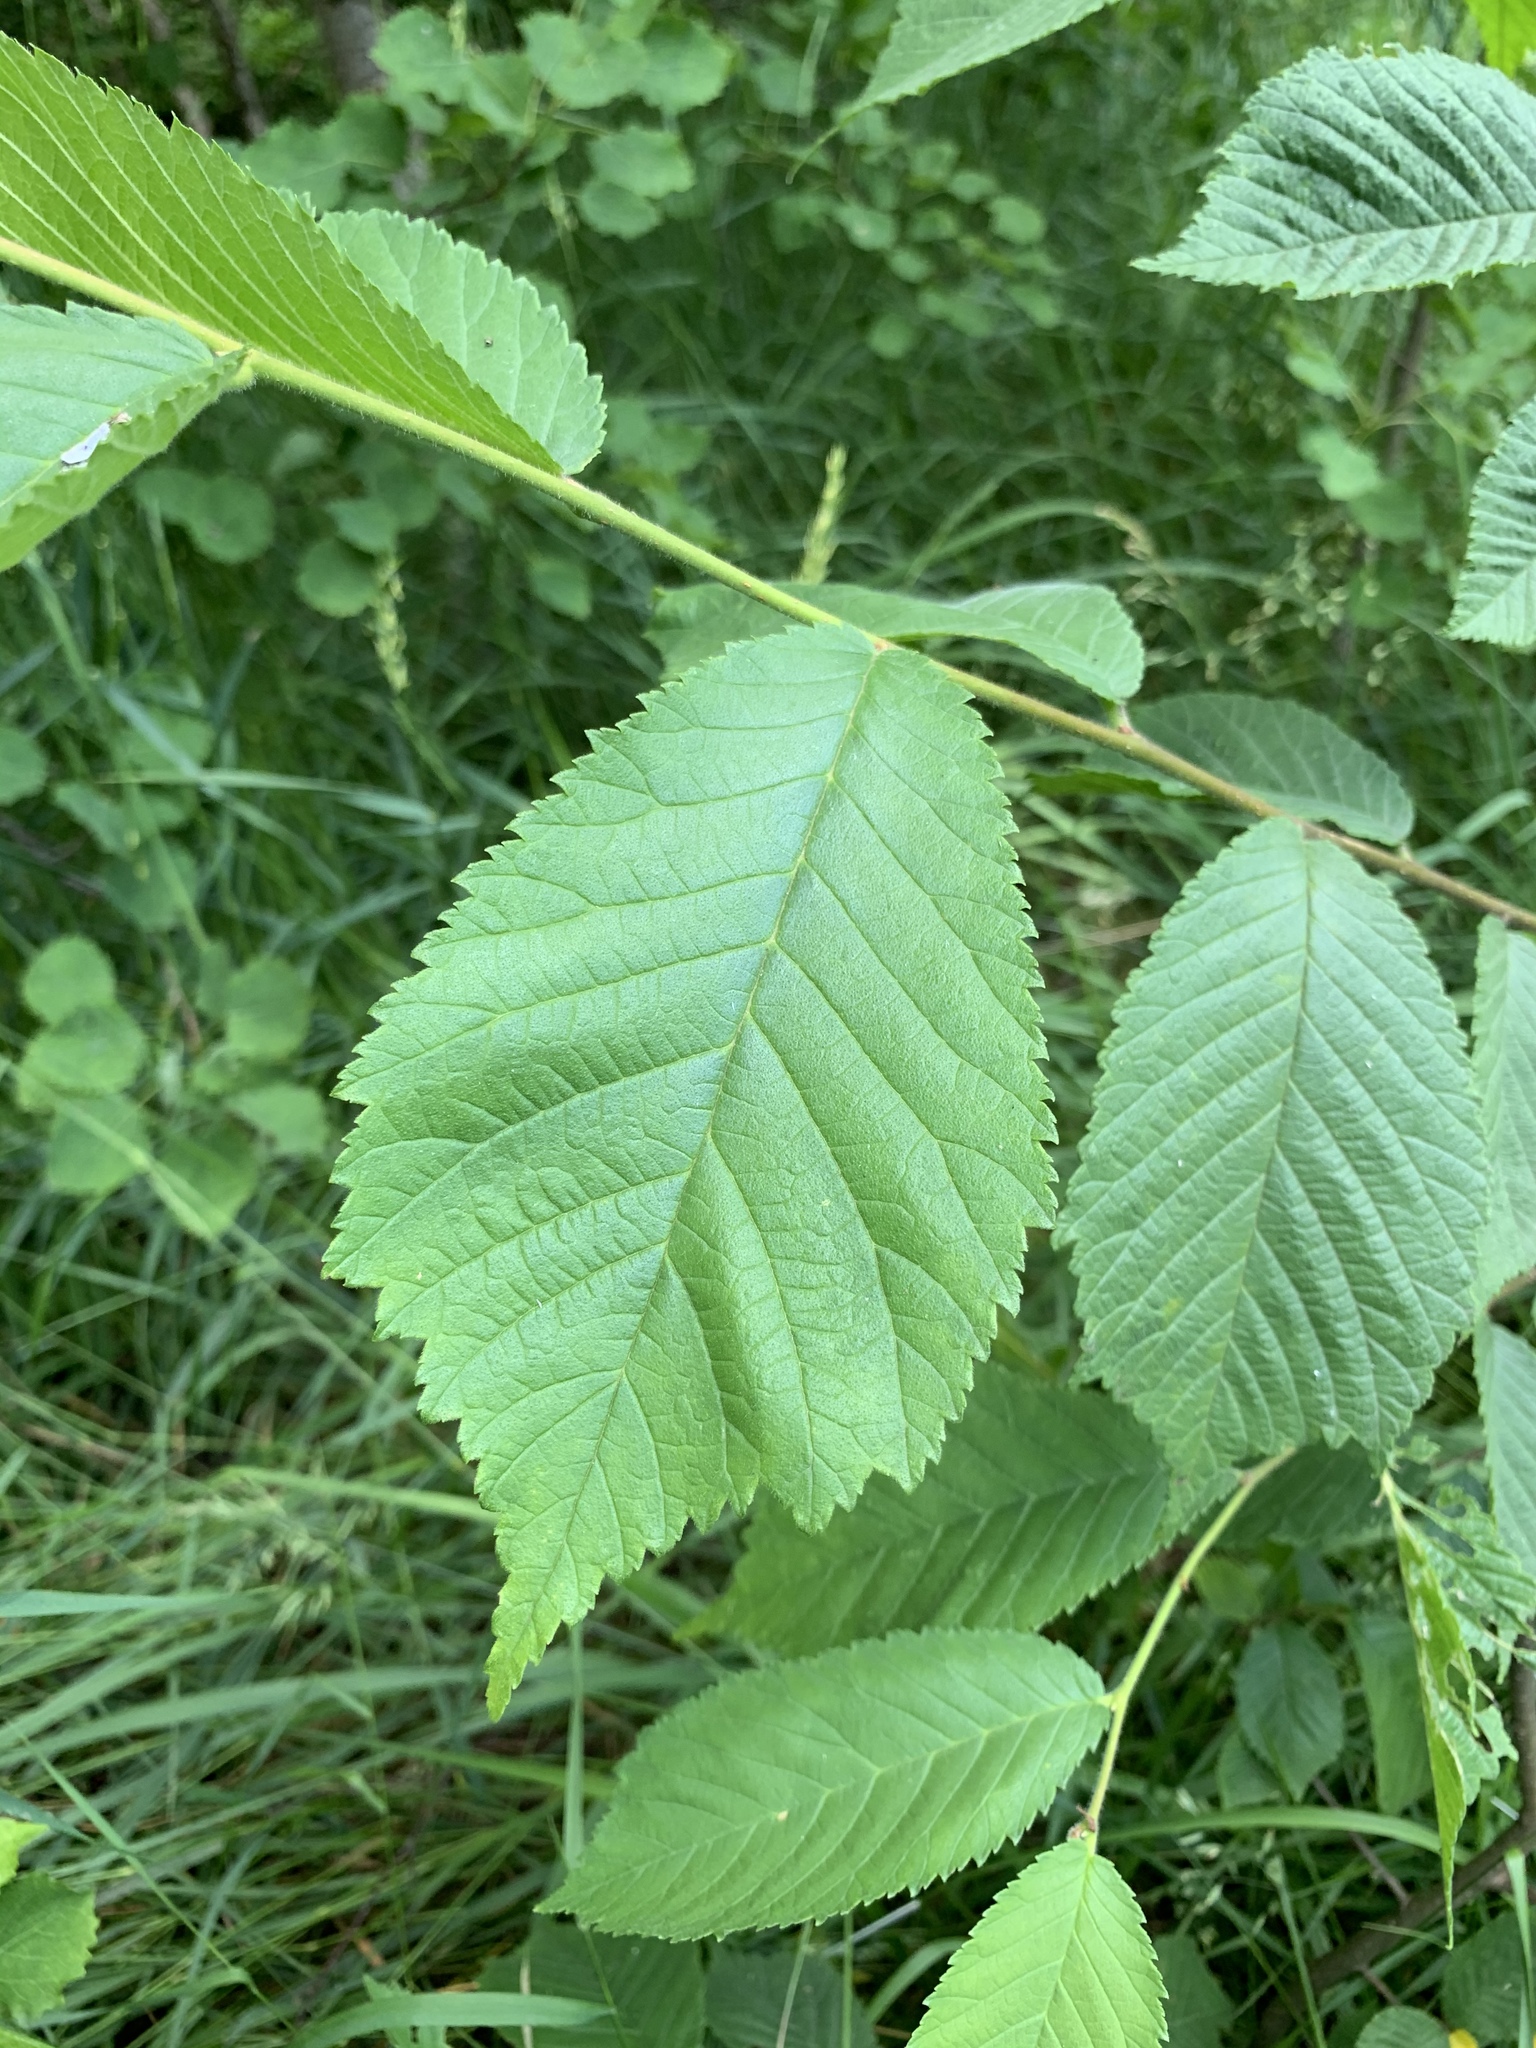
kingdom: Plantae
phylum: Tracheophyta
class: Magnoliopsida
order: Rosales
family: Ulmaceae
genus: Ulmus
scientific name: Ulmus glabra
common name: Wych elm
